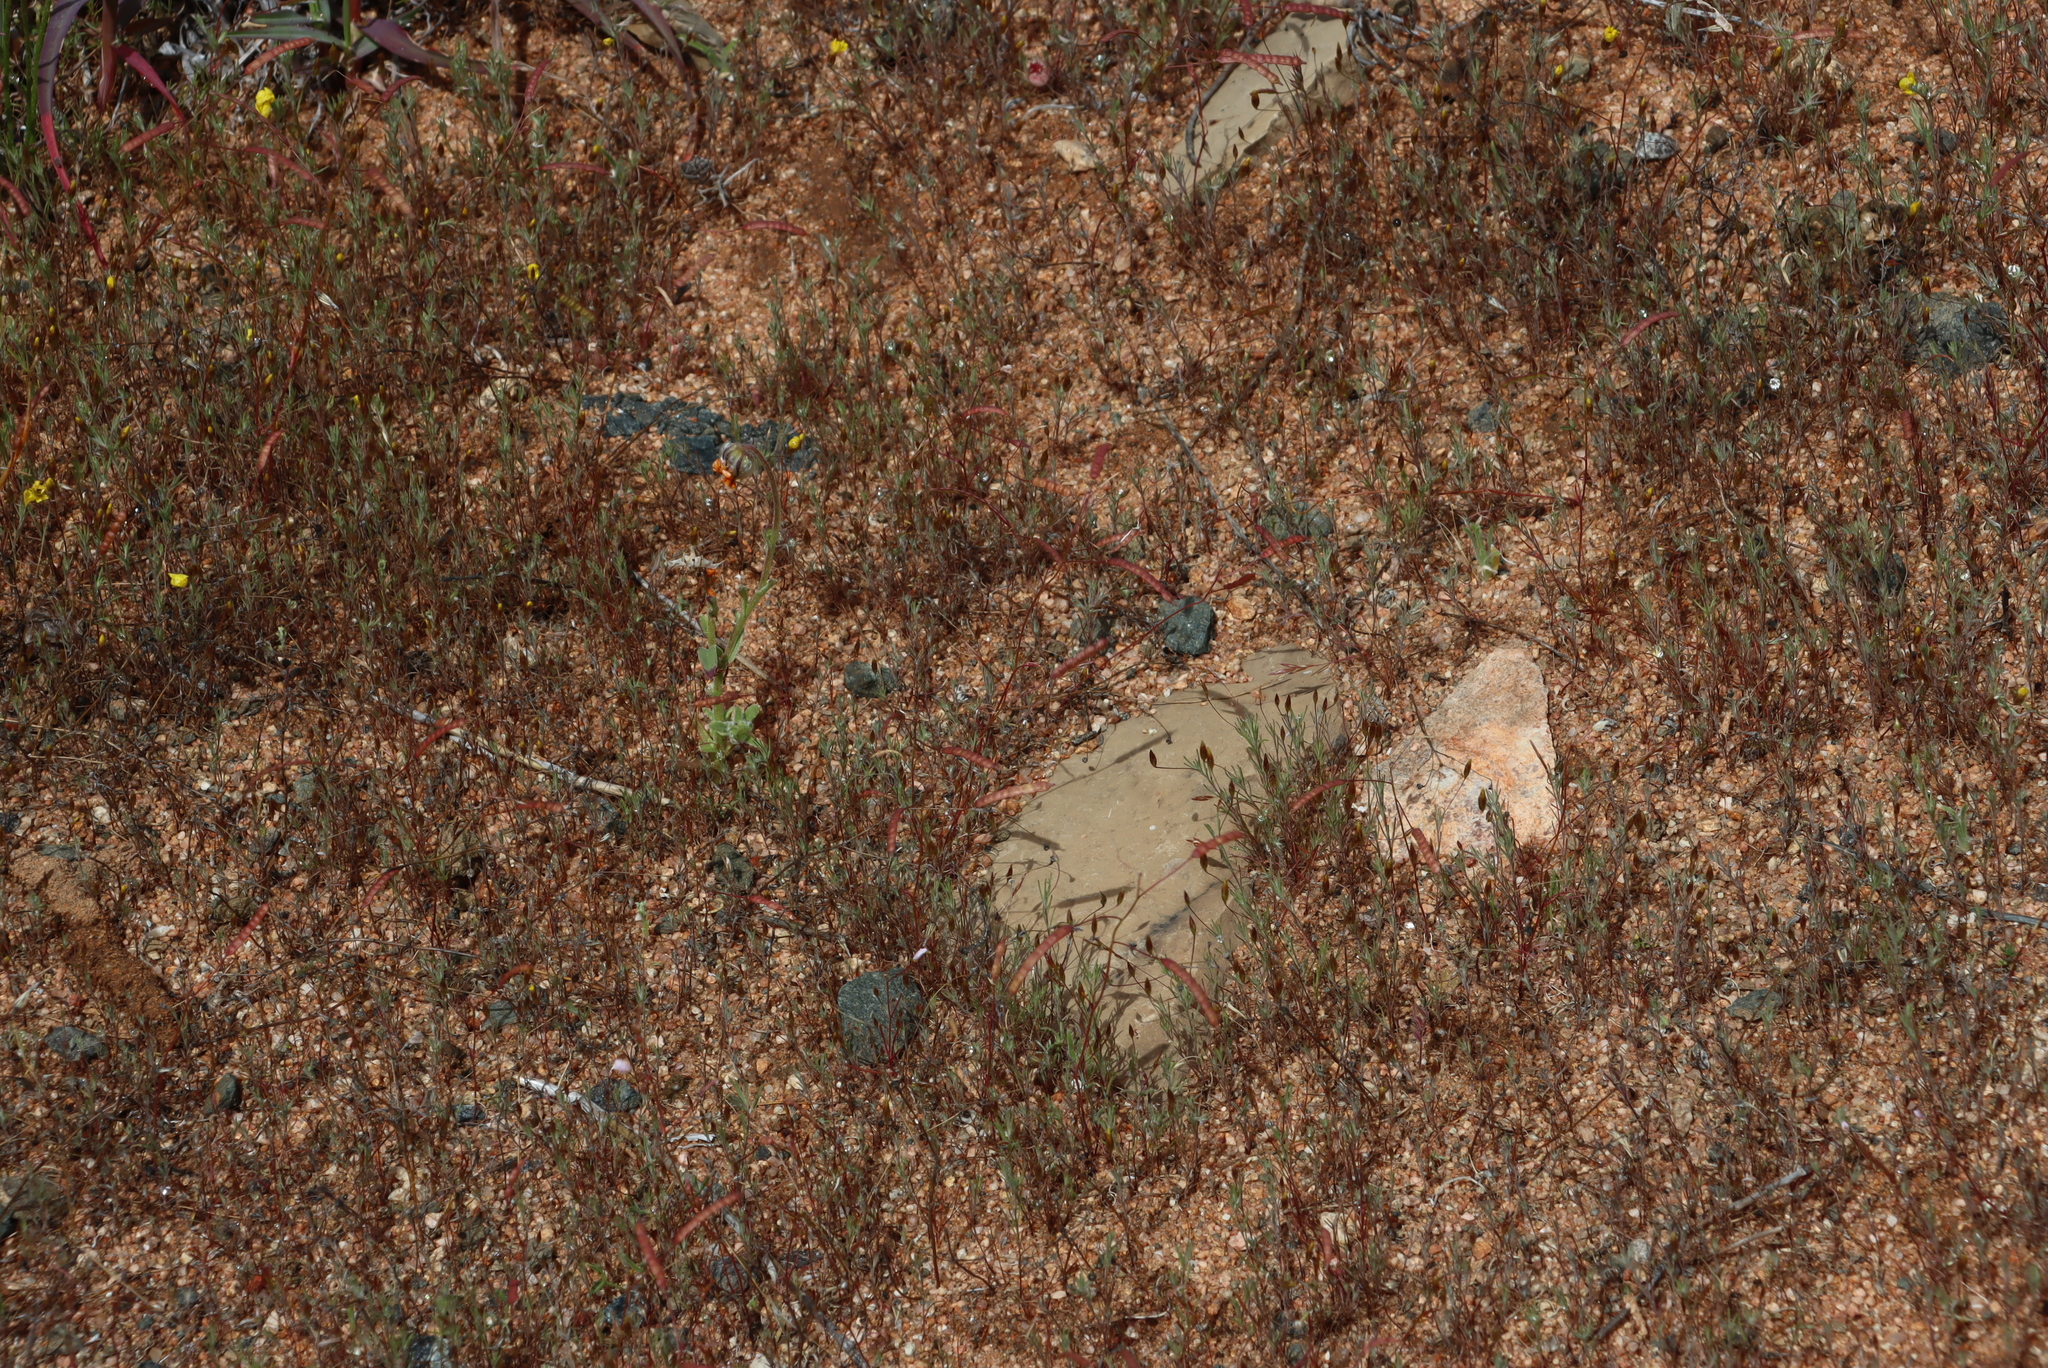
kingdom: Plantae
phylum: Tracheophyta
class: Magnoliopsida
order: Brassicales
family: Brassicaceae
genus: Heliophila
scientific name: Heliophila variabilis
